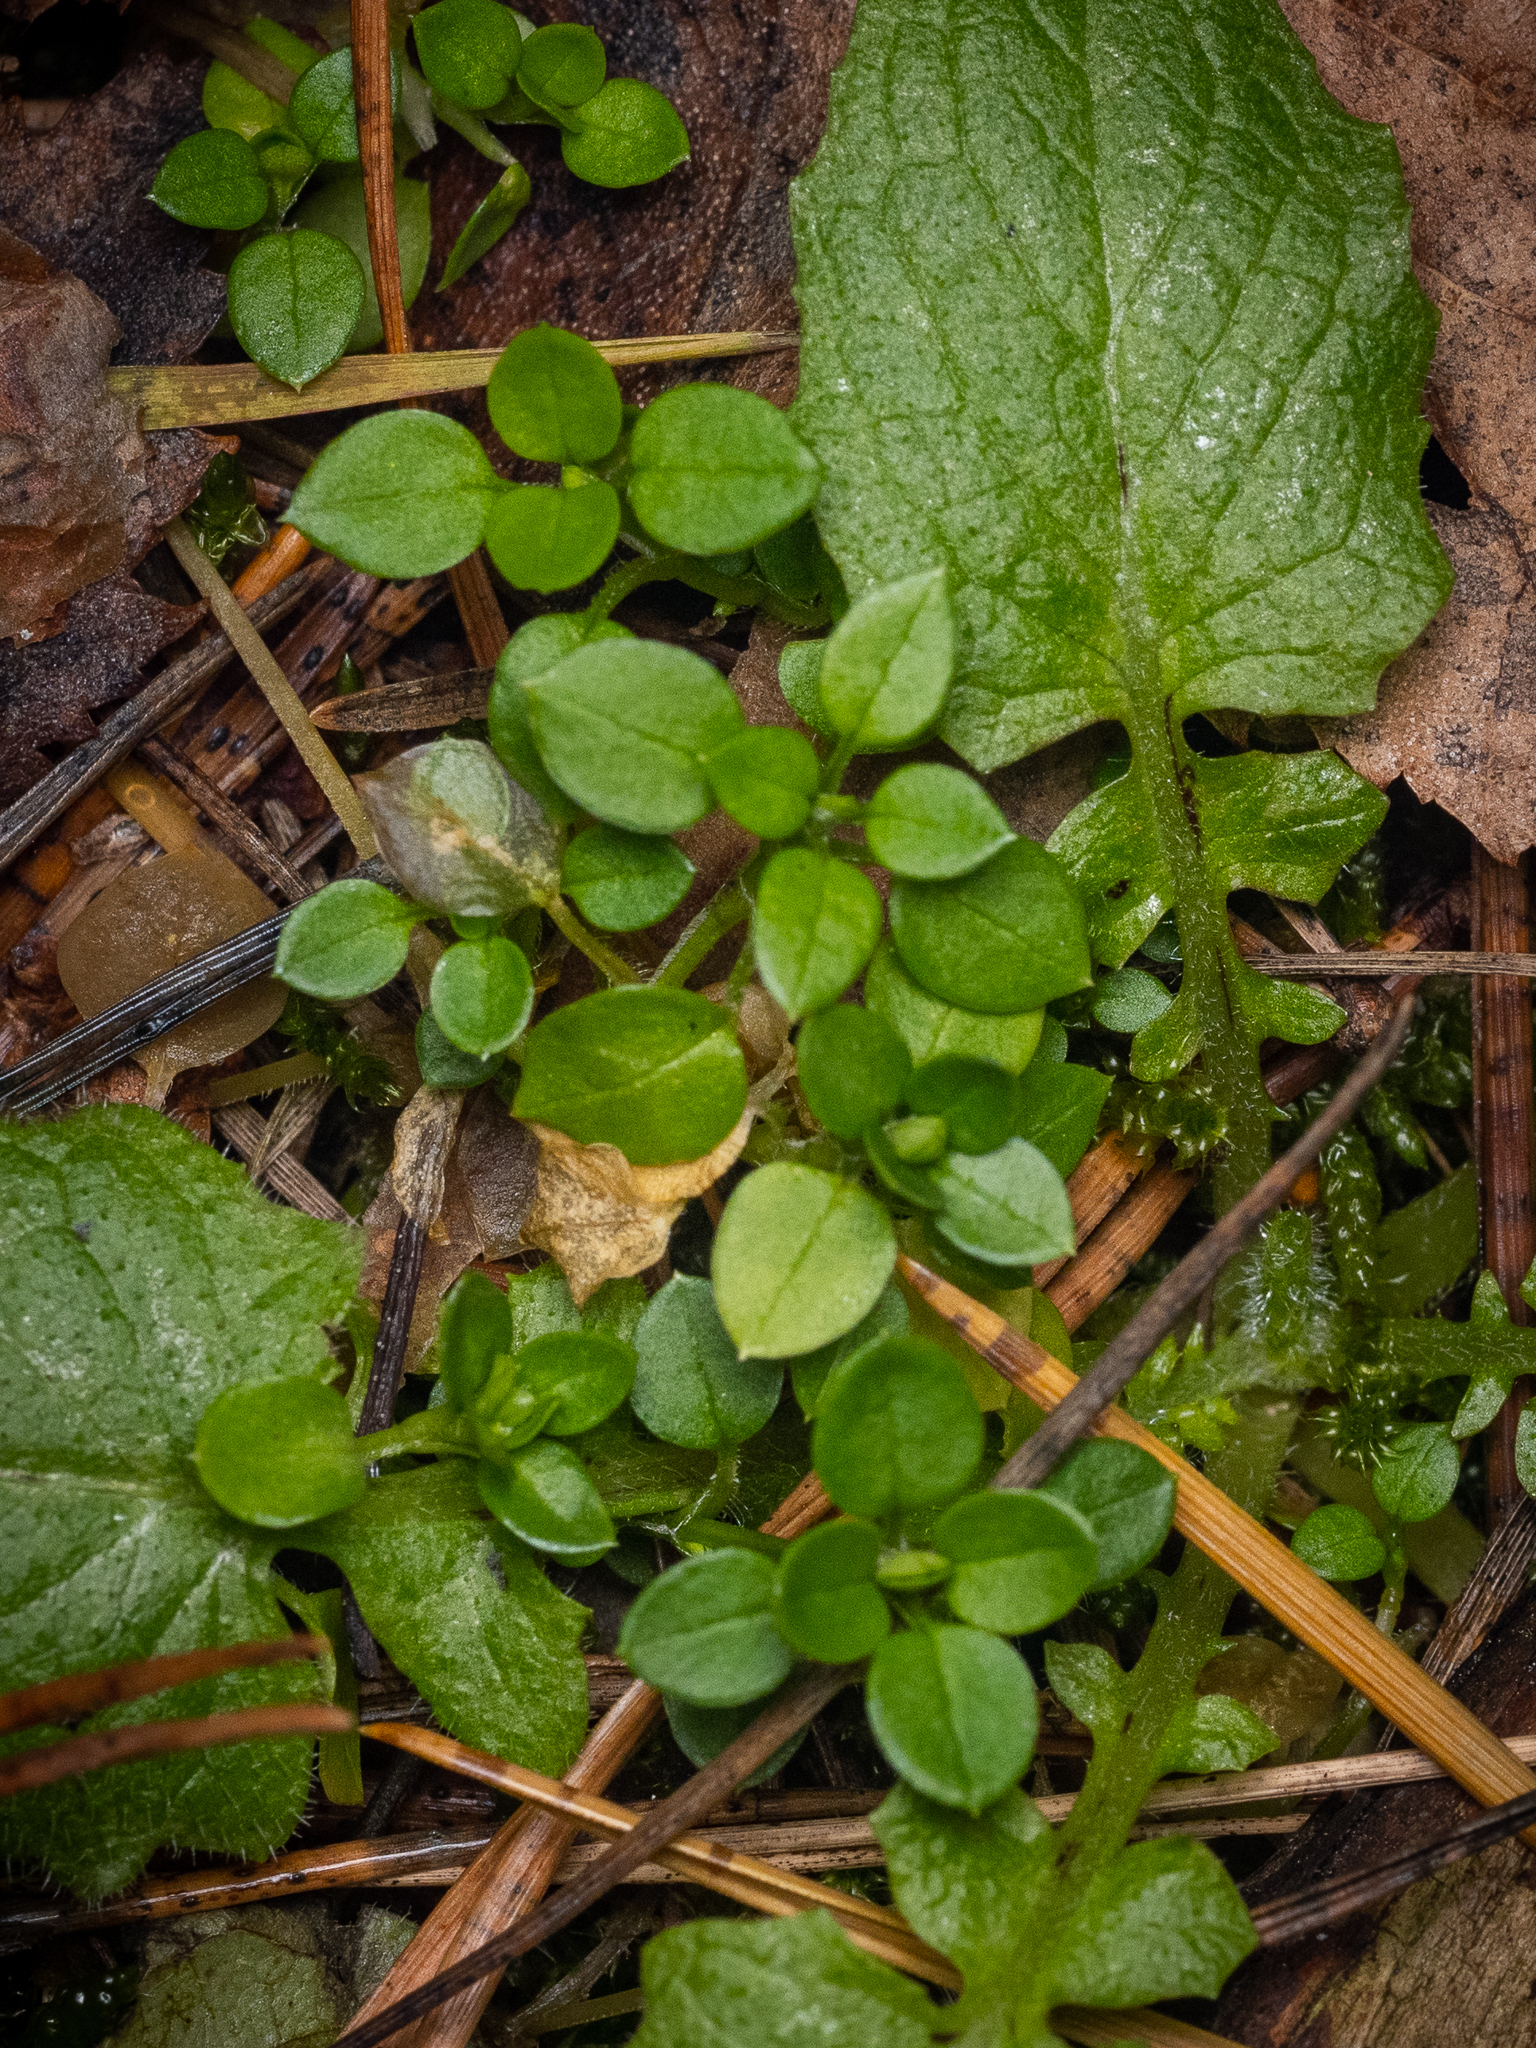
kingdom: Plantae
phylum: Tracheophyta
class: Magnoliopsida
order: Caryophyllales
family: Caryophyllaceae
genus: Stellaria
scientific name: Stellaria media
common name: Common chickweed
